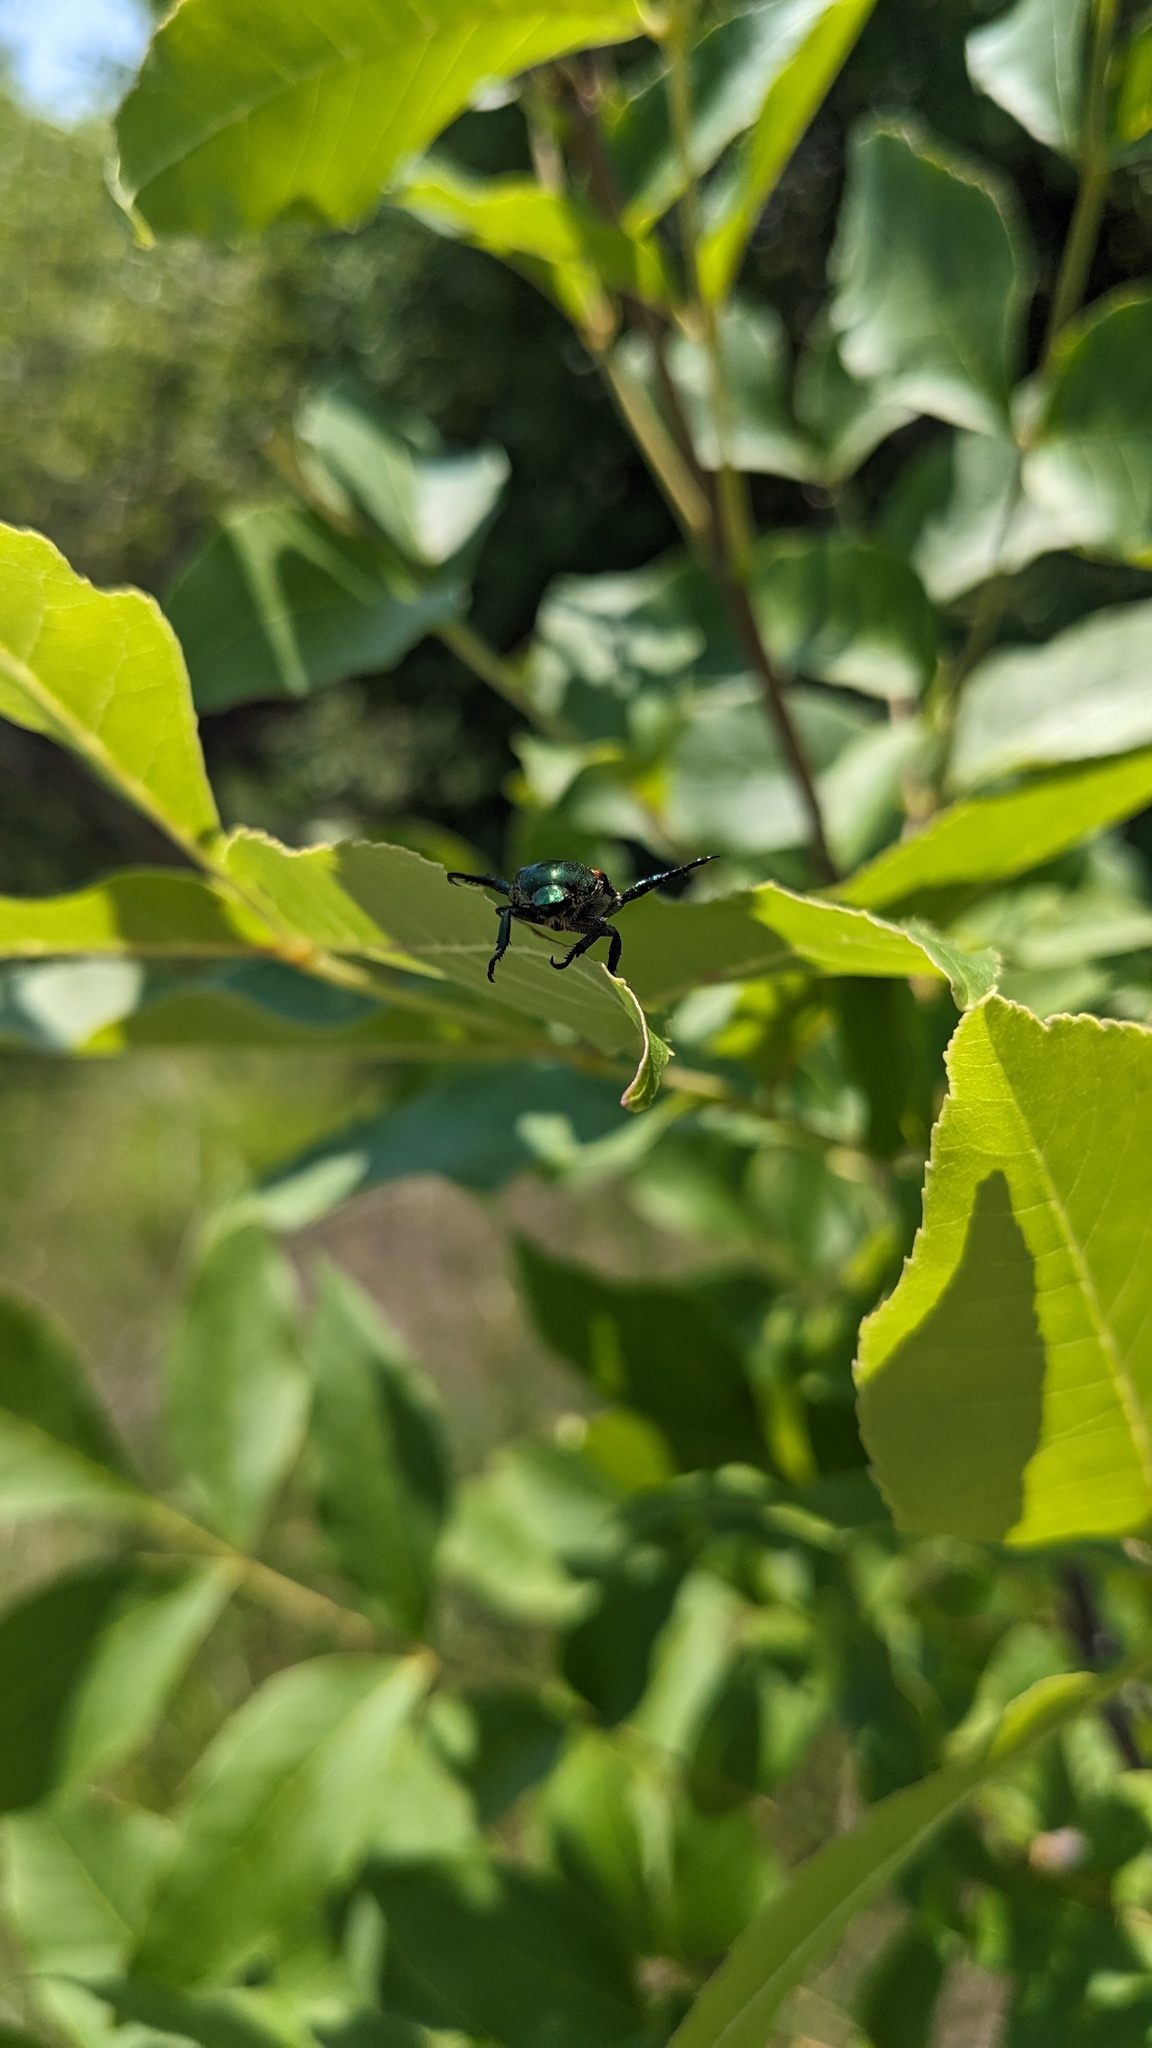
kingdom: Animalia
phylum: Arthropoda
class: Insecta
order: Coleoptera
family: Scarabaeidae
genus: Popillia
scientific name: Popillia japonica
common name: Japanese beetle
